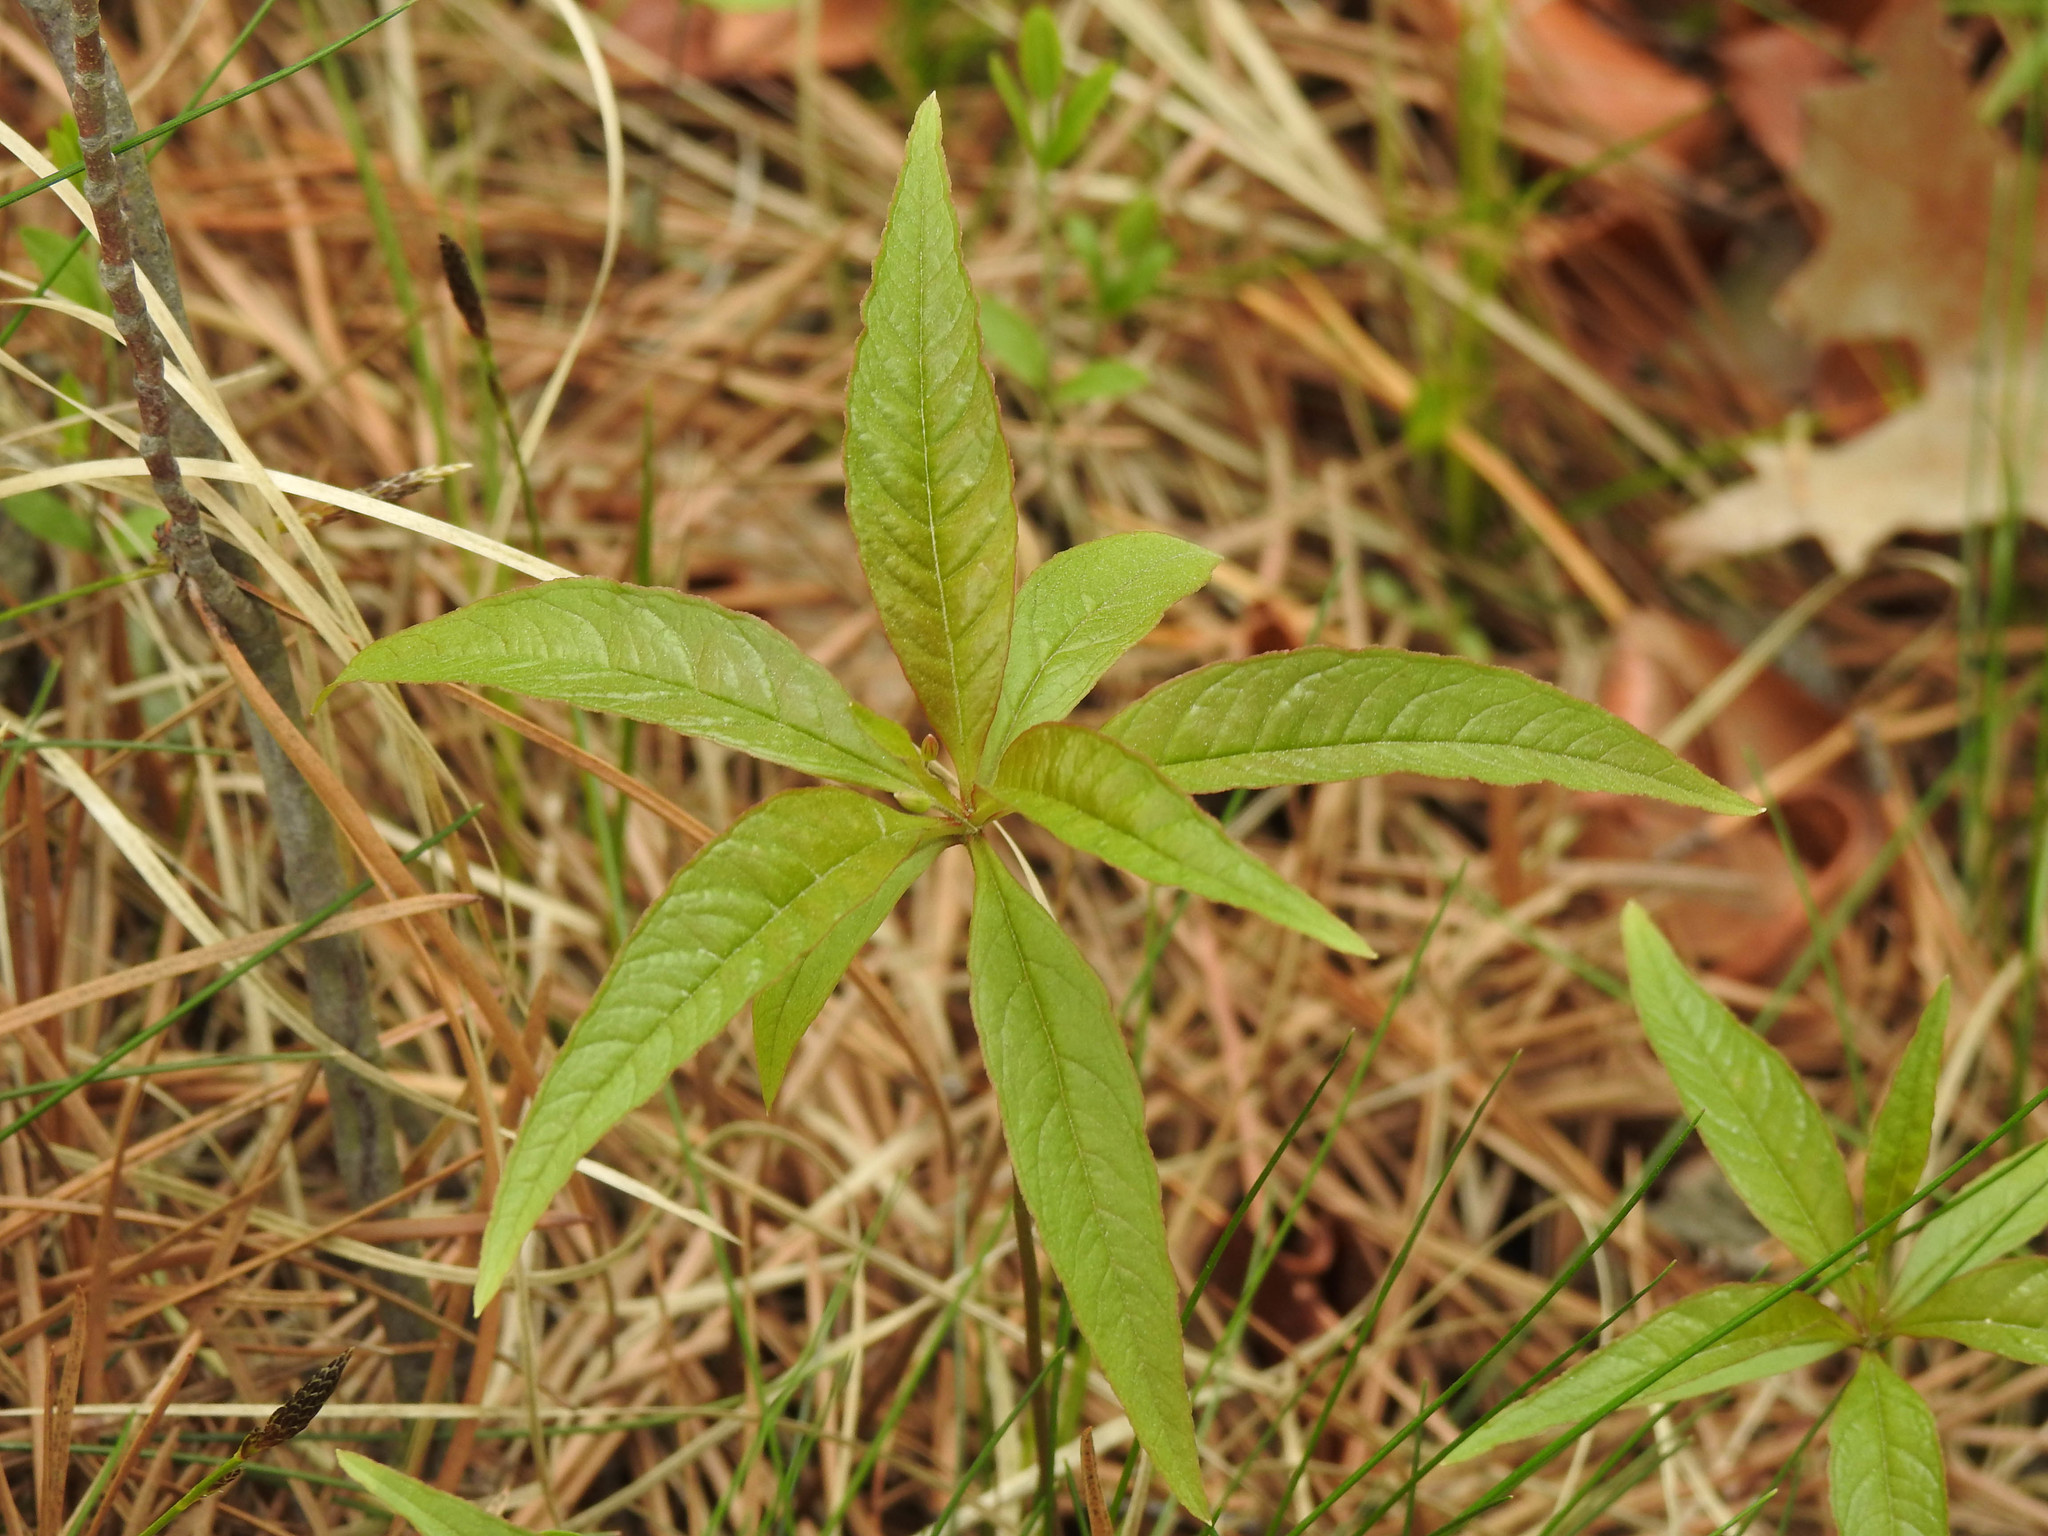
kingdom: Plantae
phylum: Tracheophyta
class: Magnoliopsida
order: Ericales
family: Primulaceae
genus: Lysimachia
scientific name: Lysimachia borealis
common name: American starflower
